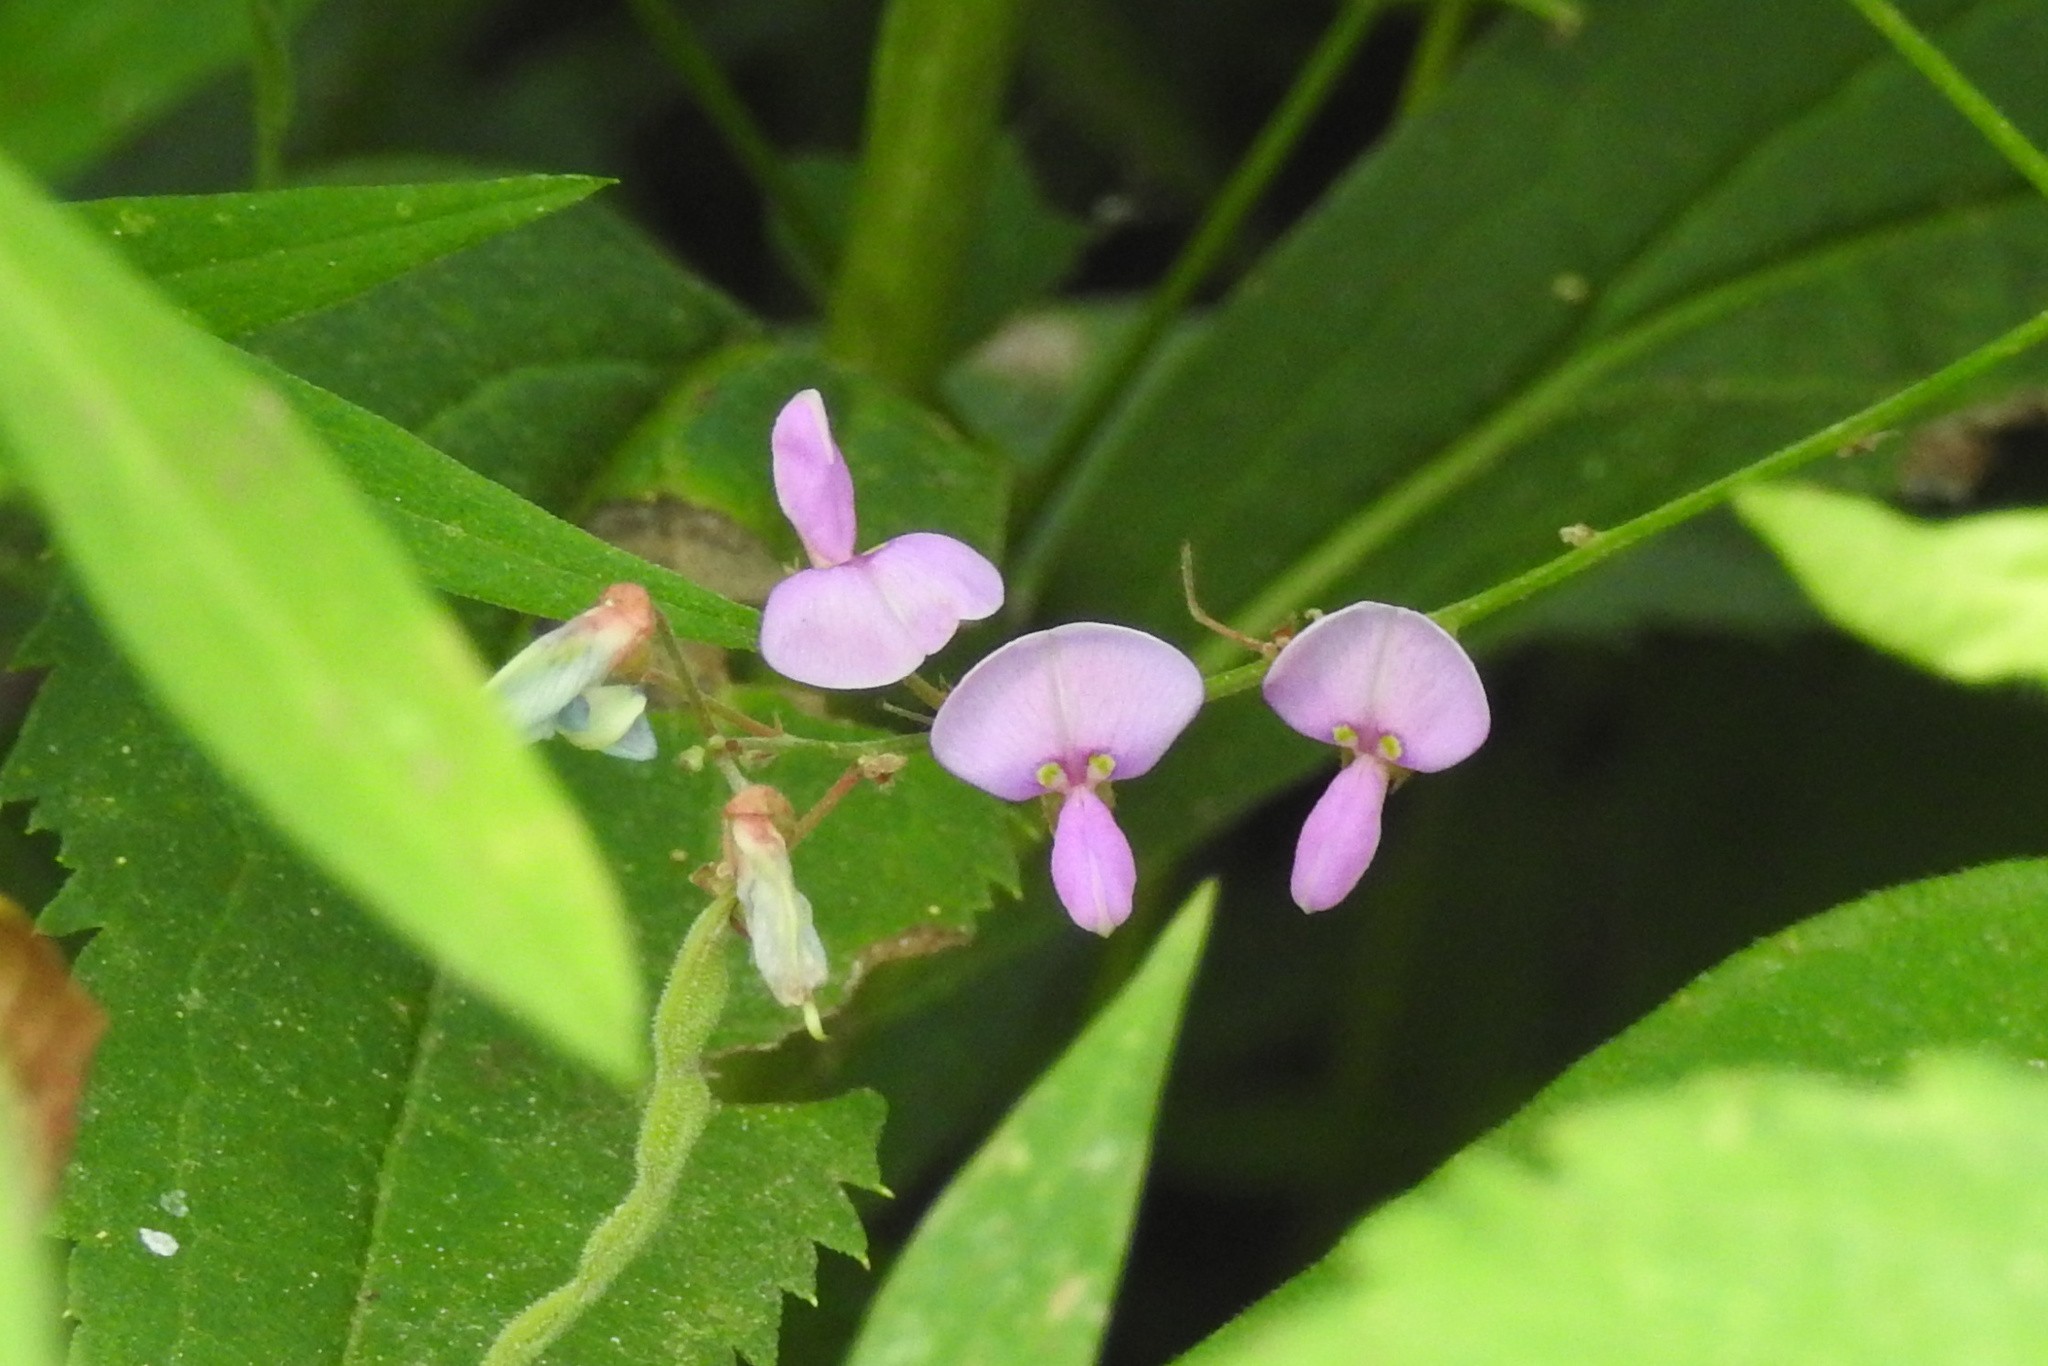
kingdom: Plantae
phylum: Tracheophyta
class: Magnoliopsida
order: Fabales
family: Fabaceae
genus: Desmodium
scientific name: Desmodium
